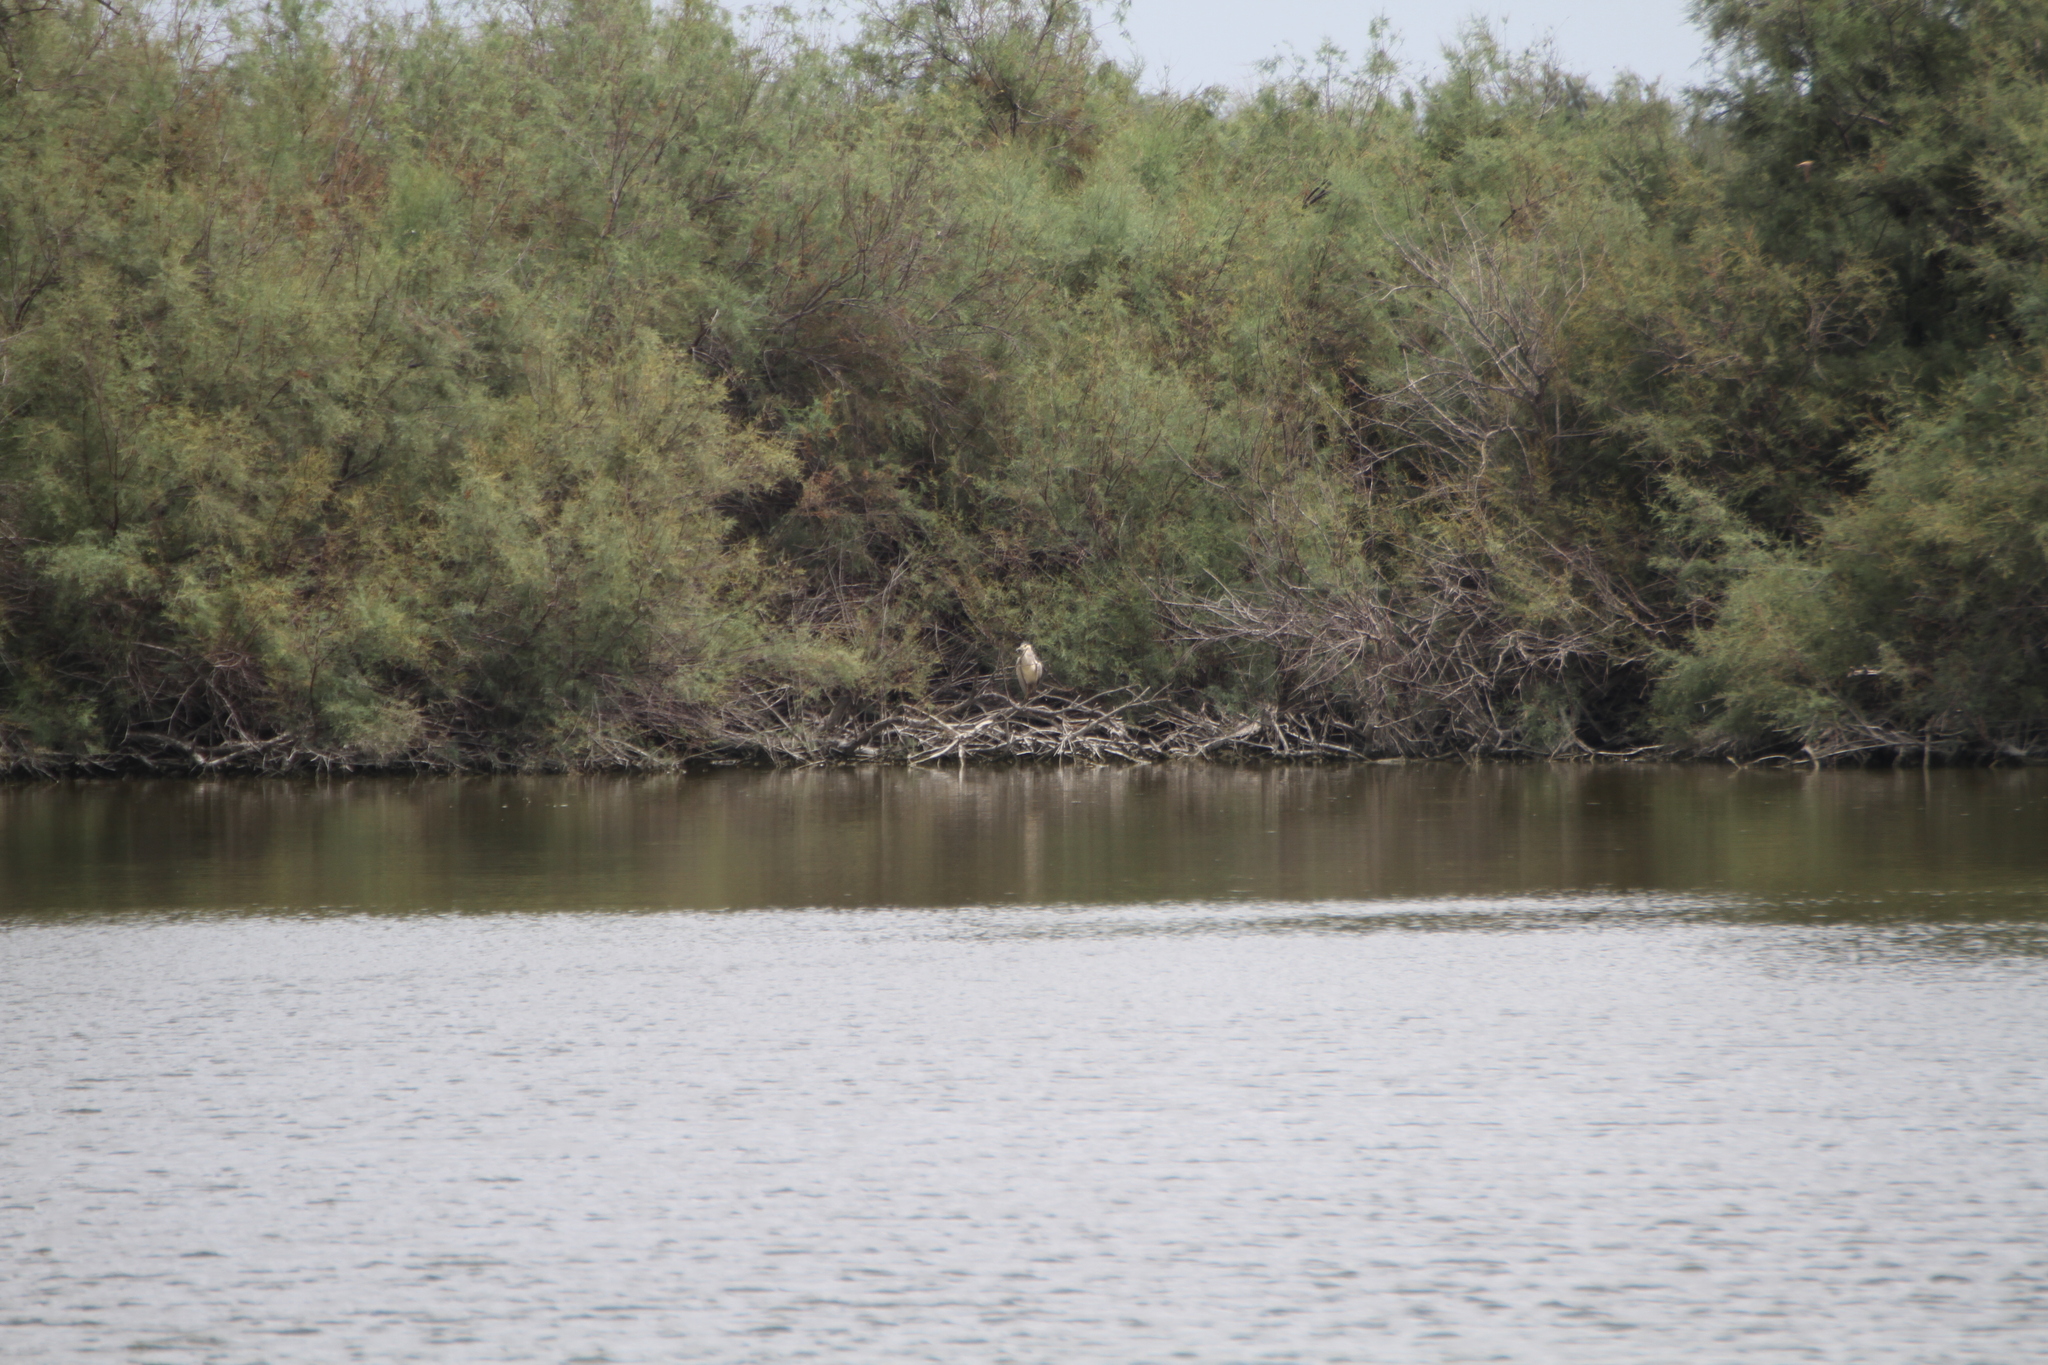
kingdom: Animalia
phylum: Chordata
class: Aves
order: Pelecaniformes
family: Ardeidae
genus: Nycticorax
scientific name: Nycticorax nycticorax
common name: Black-crowned night heron
